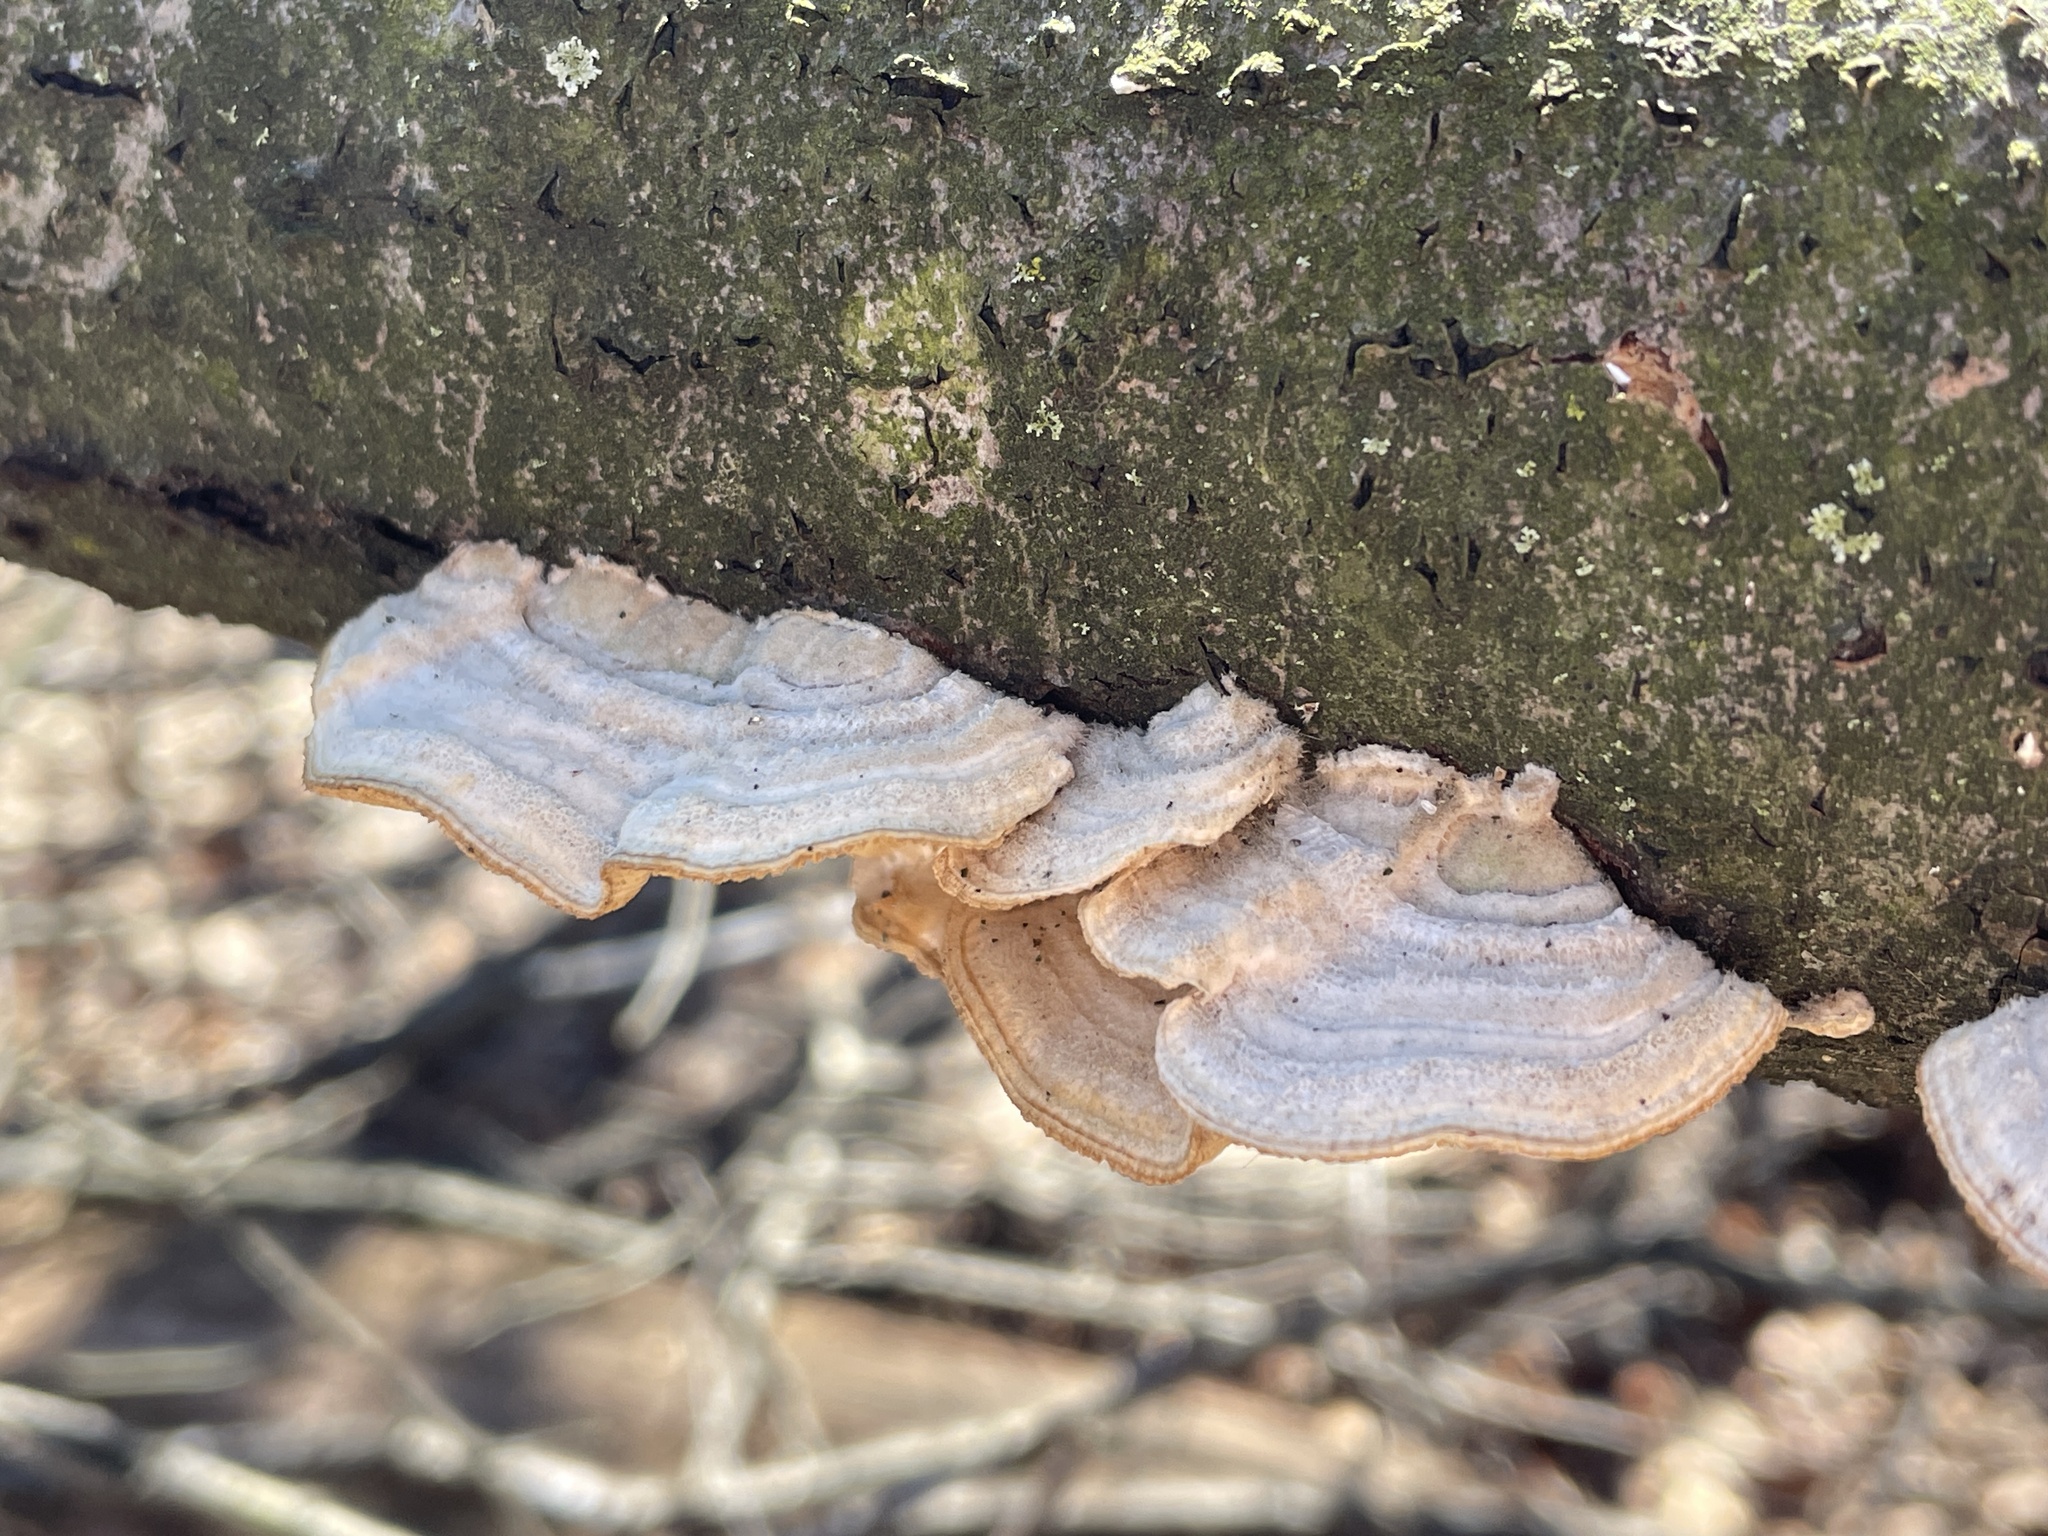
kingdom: Fungi
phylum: Basidiomycota
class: Agaricomycetes
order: Polyporales
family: Polyporaceae
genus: Lenzites
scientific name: Lenzites betulinus
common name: Birch mazegill
